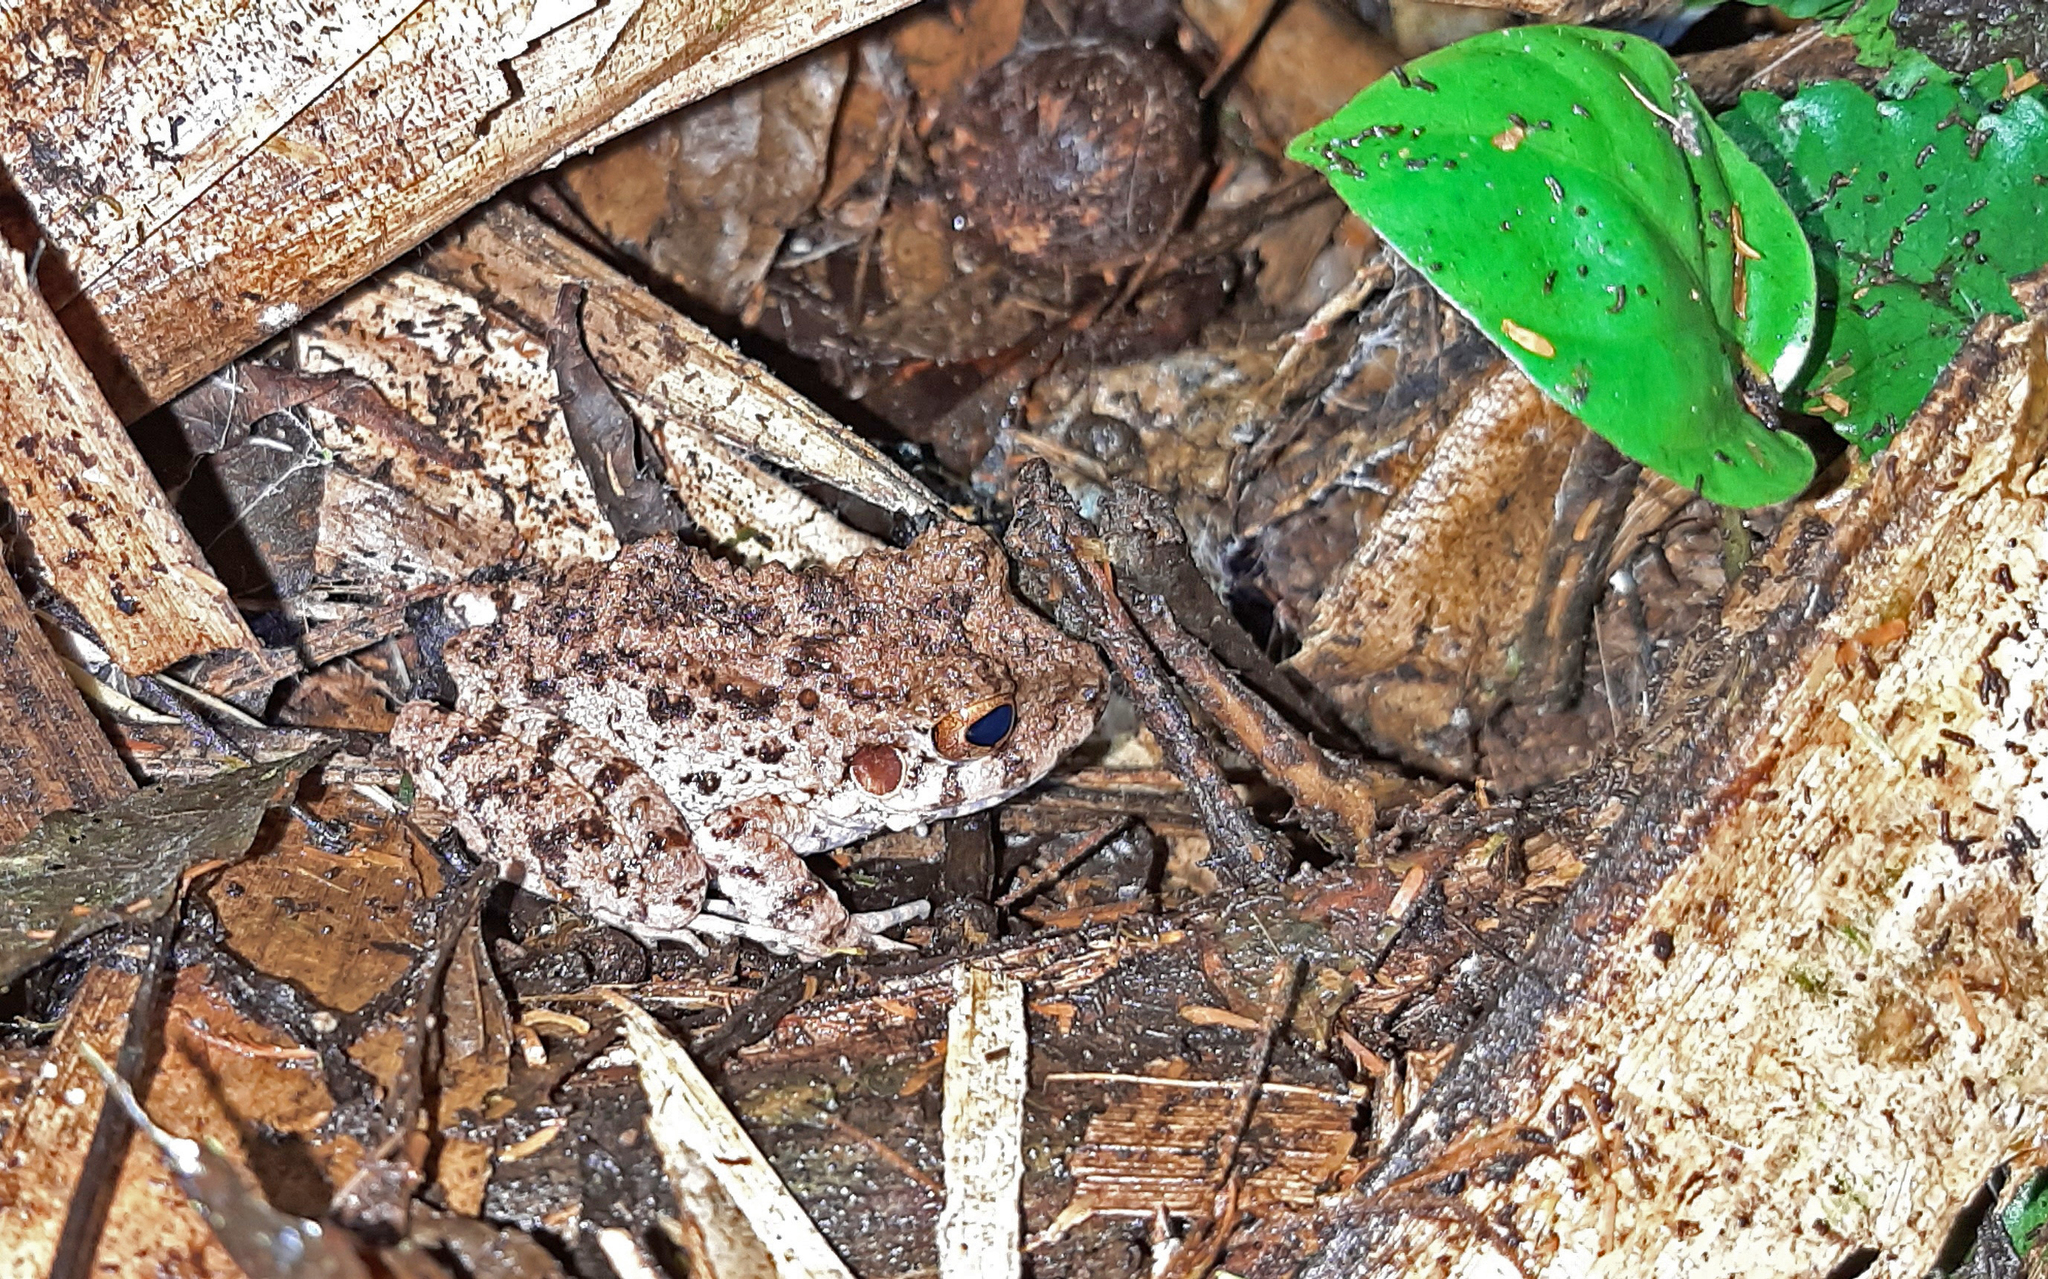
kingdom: Animalia
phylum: Chordata
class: Amphibia
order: Anura
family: Craugastoridae
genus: Oreobates
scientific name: Oreobates quixensis
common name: Common big-headed frog
